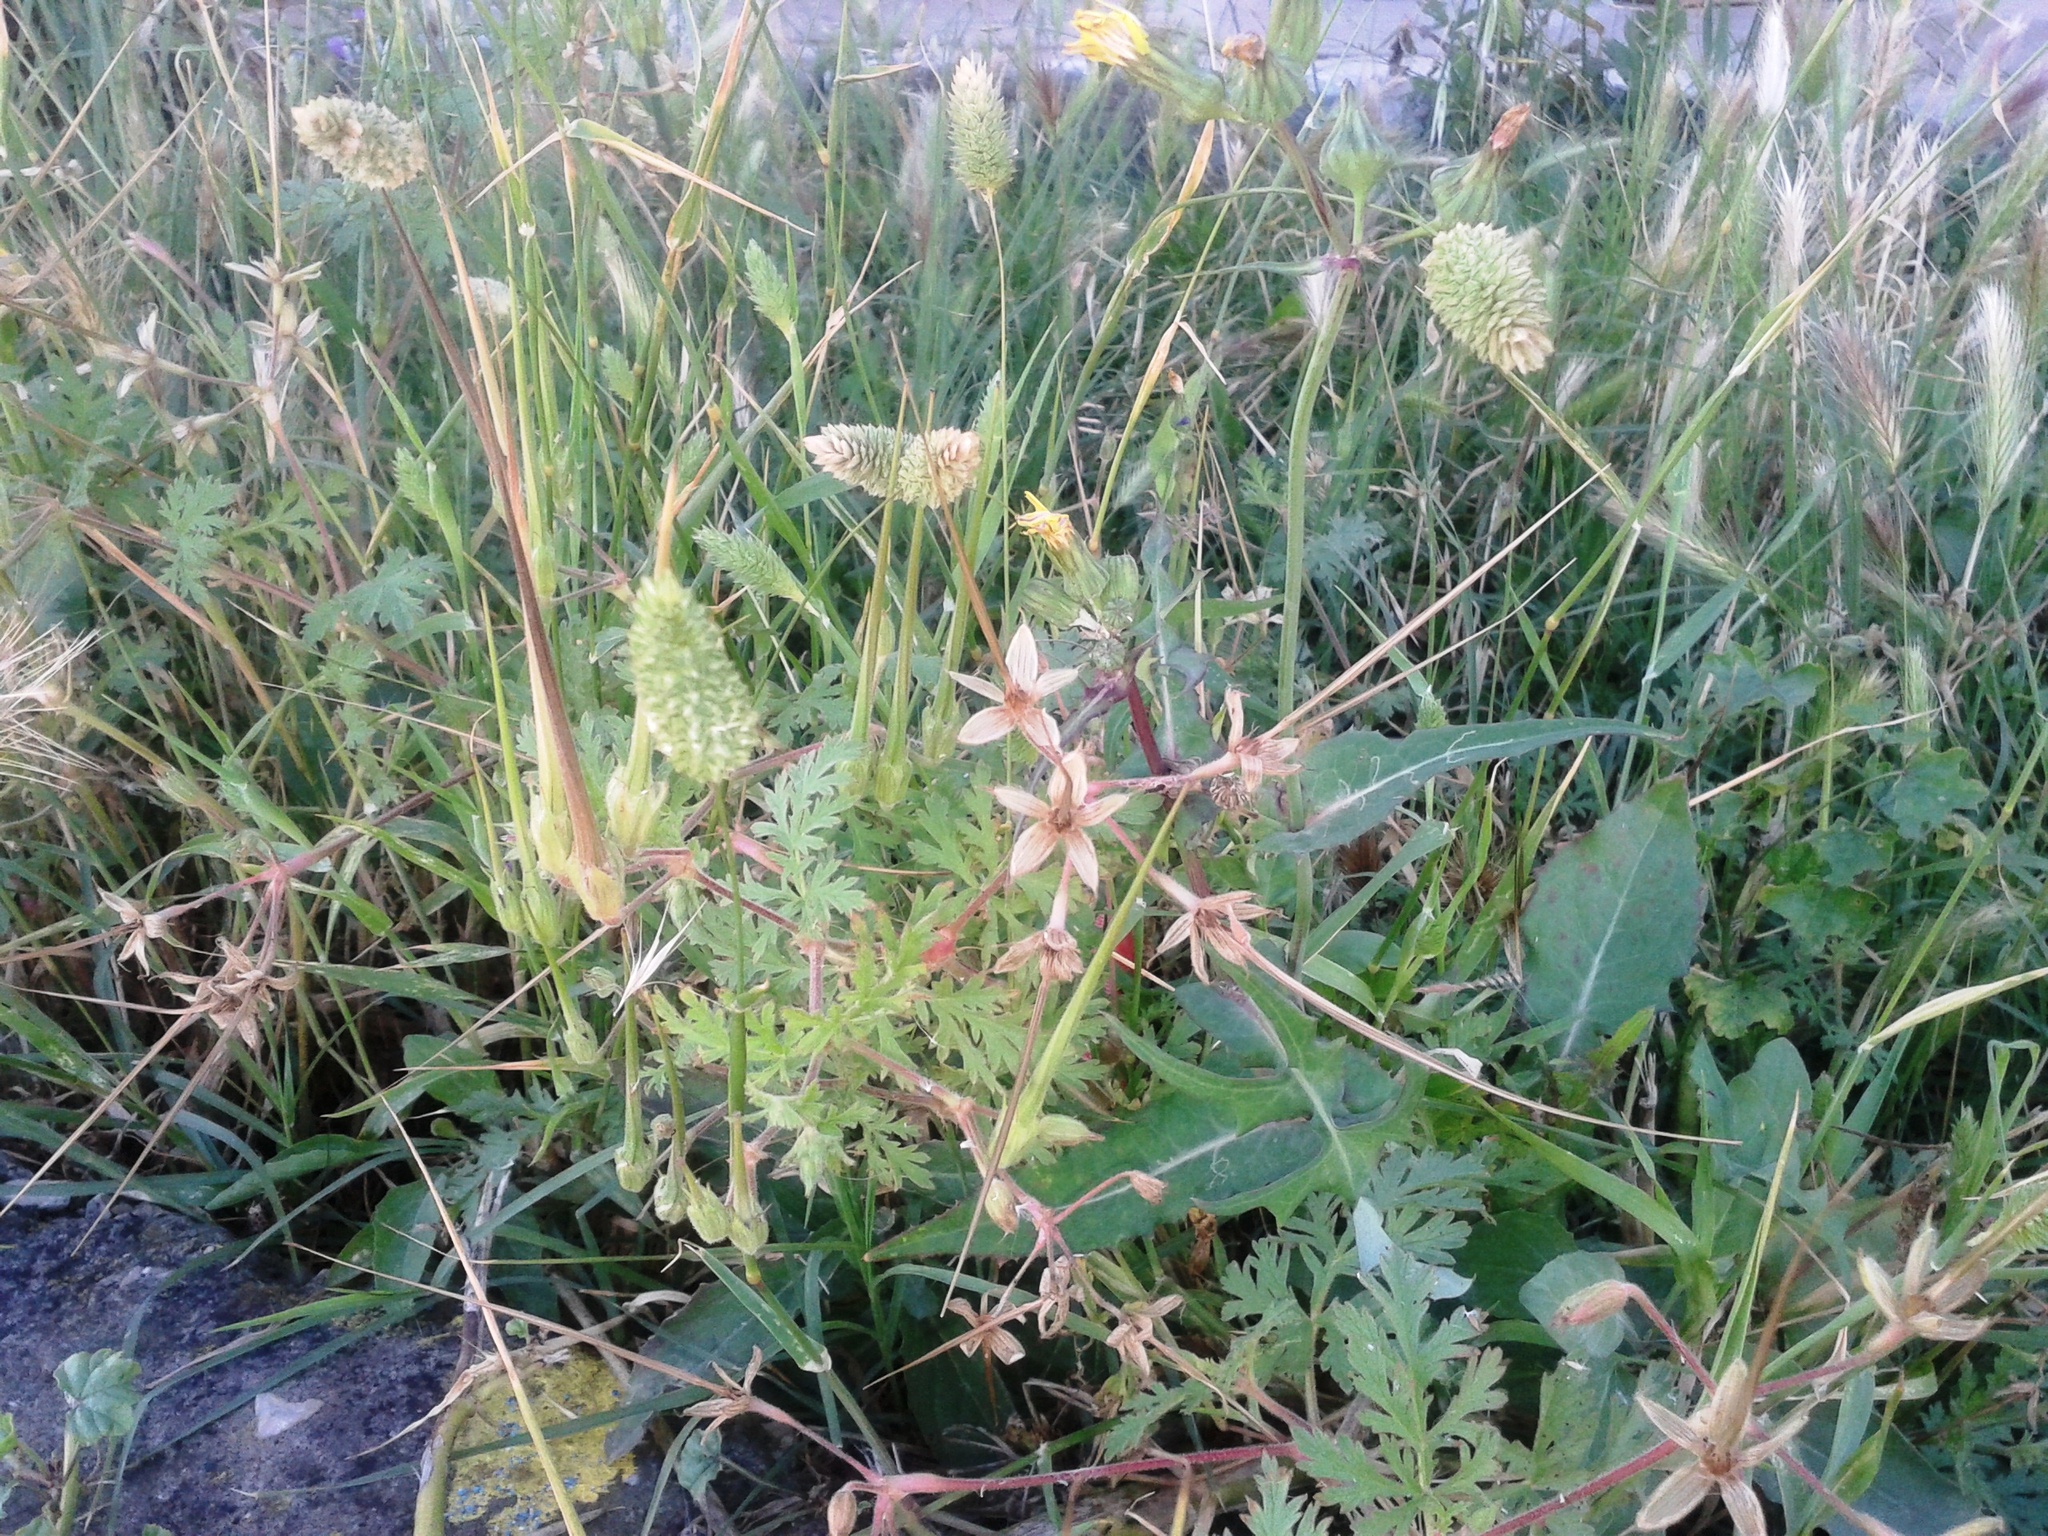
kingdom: Plantae
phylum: Tracheophyta
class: Magnoliopsida
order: Geraniales
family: Geraniaceae
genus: Erodium
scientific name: Erodium ciconium
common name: Common stork's bill
